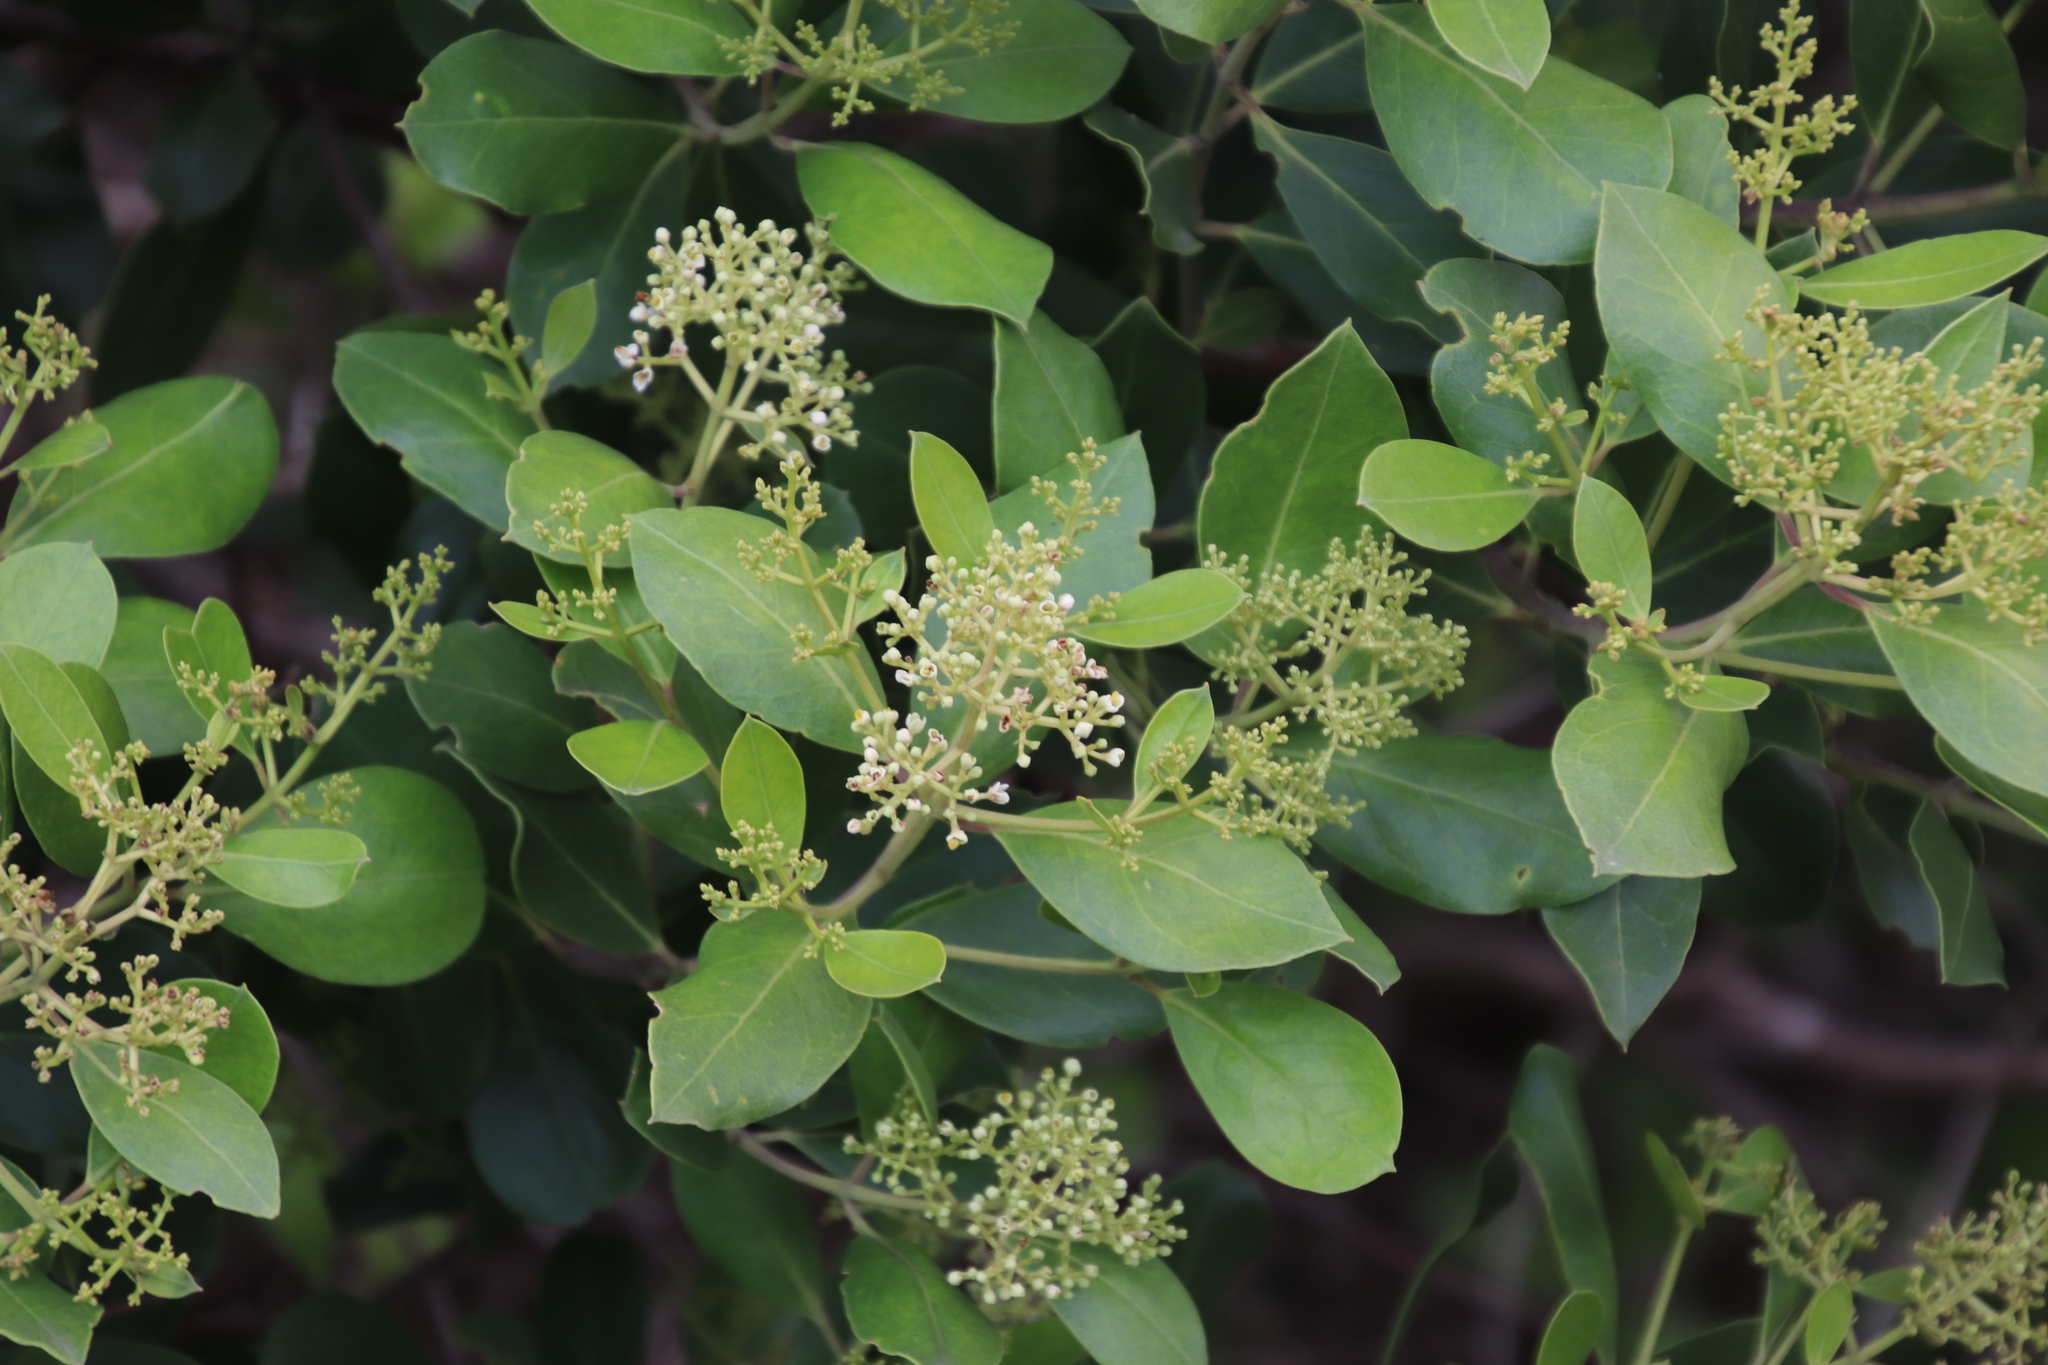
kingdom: Plantae
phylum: Tracheophyta
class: Magnoliopsida
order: Lamiales
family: Oleaceae
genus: Olea
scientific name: Olea capensis
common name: Black ironwood
